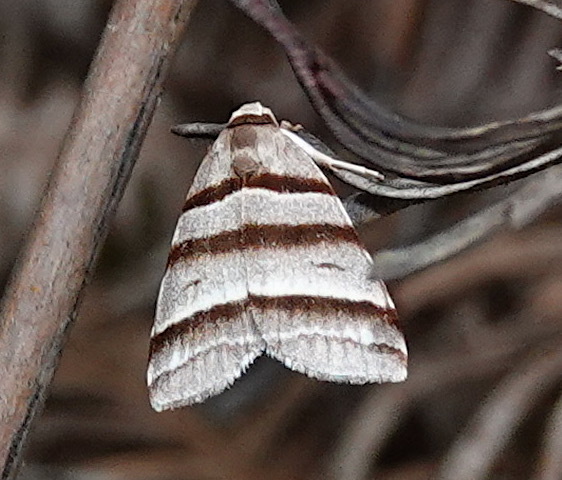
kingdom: Animalia
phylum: Arthropoda
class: Insecta
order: Lepidoptera
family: Noctuidae
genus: Flammona
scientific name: Flammona quadrifasciata
